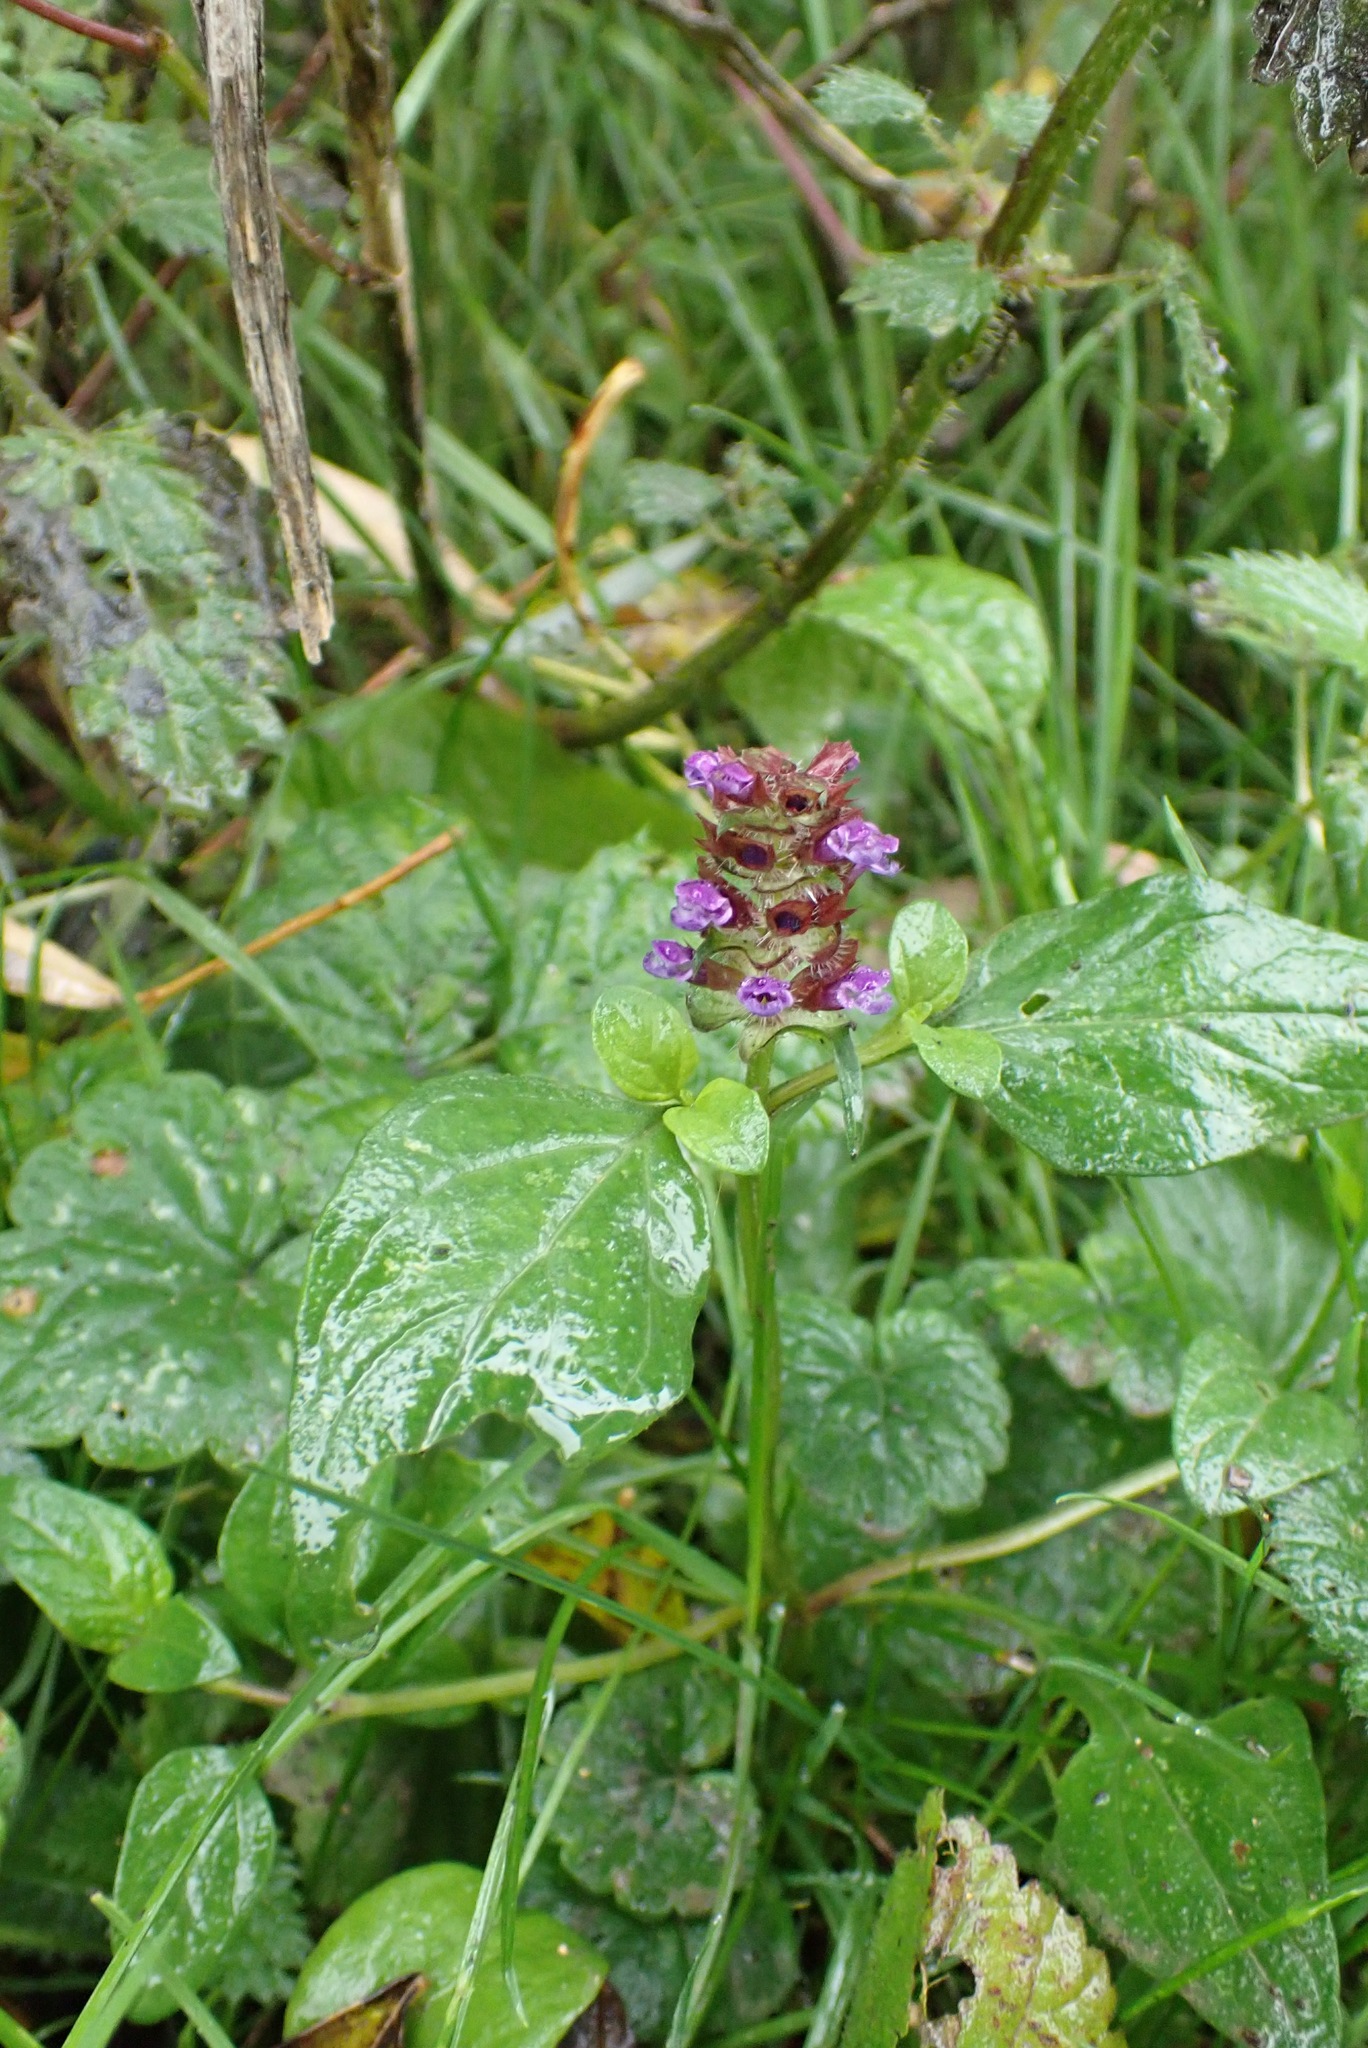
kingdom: Plantae
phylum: Tracheophyta
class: Magnoliopsida
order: Lamiales
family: Lamiaceae
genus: Prunella
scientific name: Prunella vulgaris
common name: Heal-all
